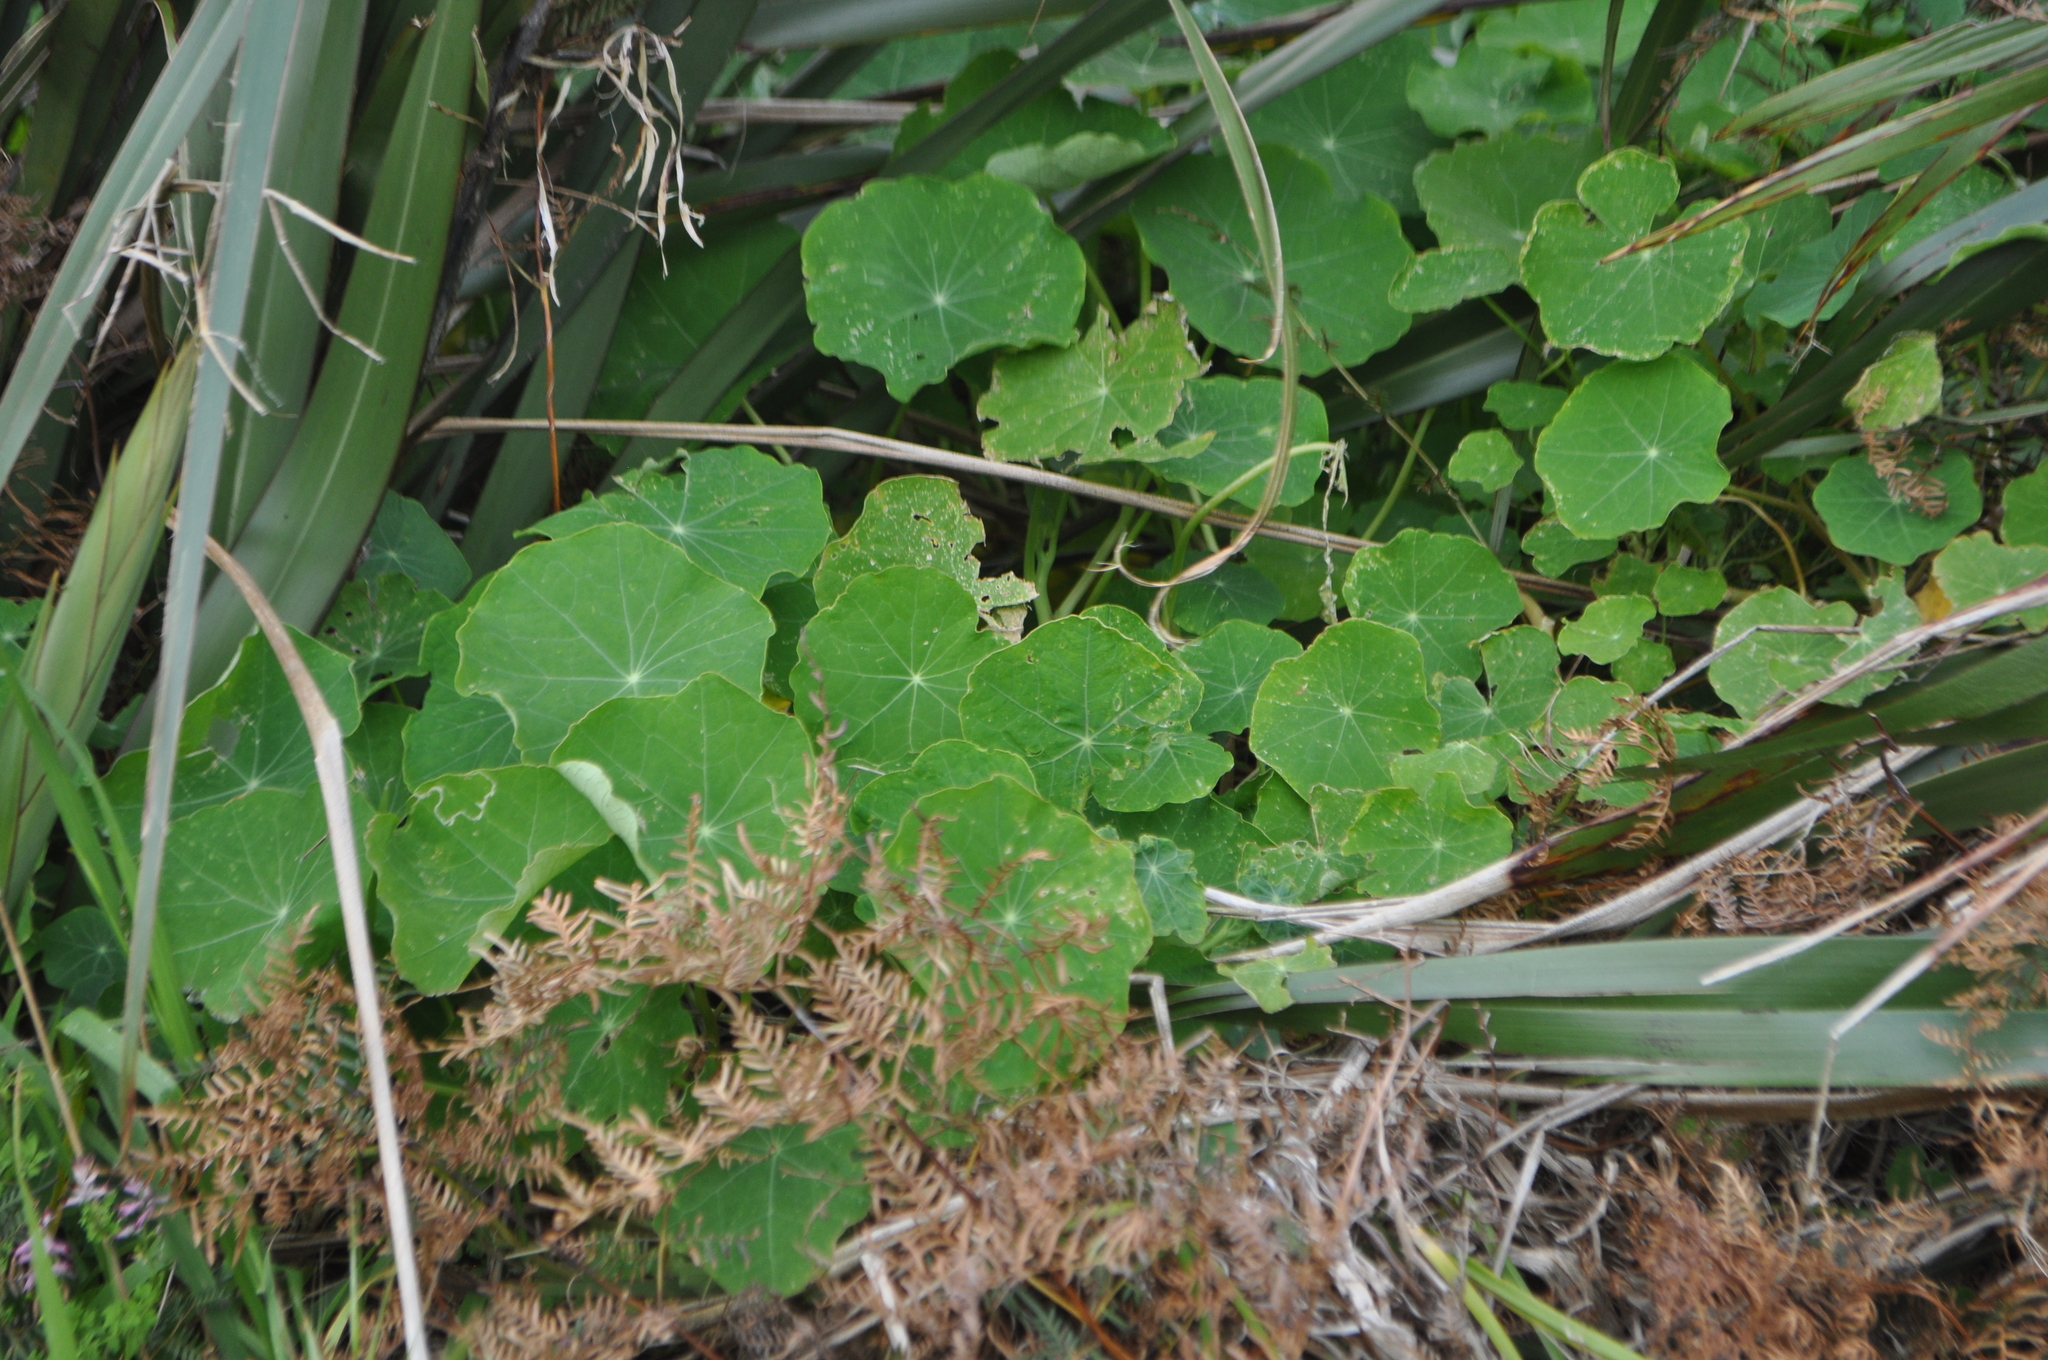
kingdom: Plantae
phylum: Tracheophyta
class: Magnoliopsida
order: Brassicales
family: Tropaeolaceae
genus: Tropaeolum
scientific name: Tropaeolum majus
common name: Nasturtium
